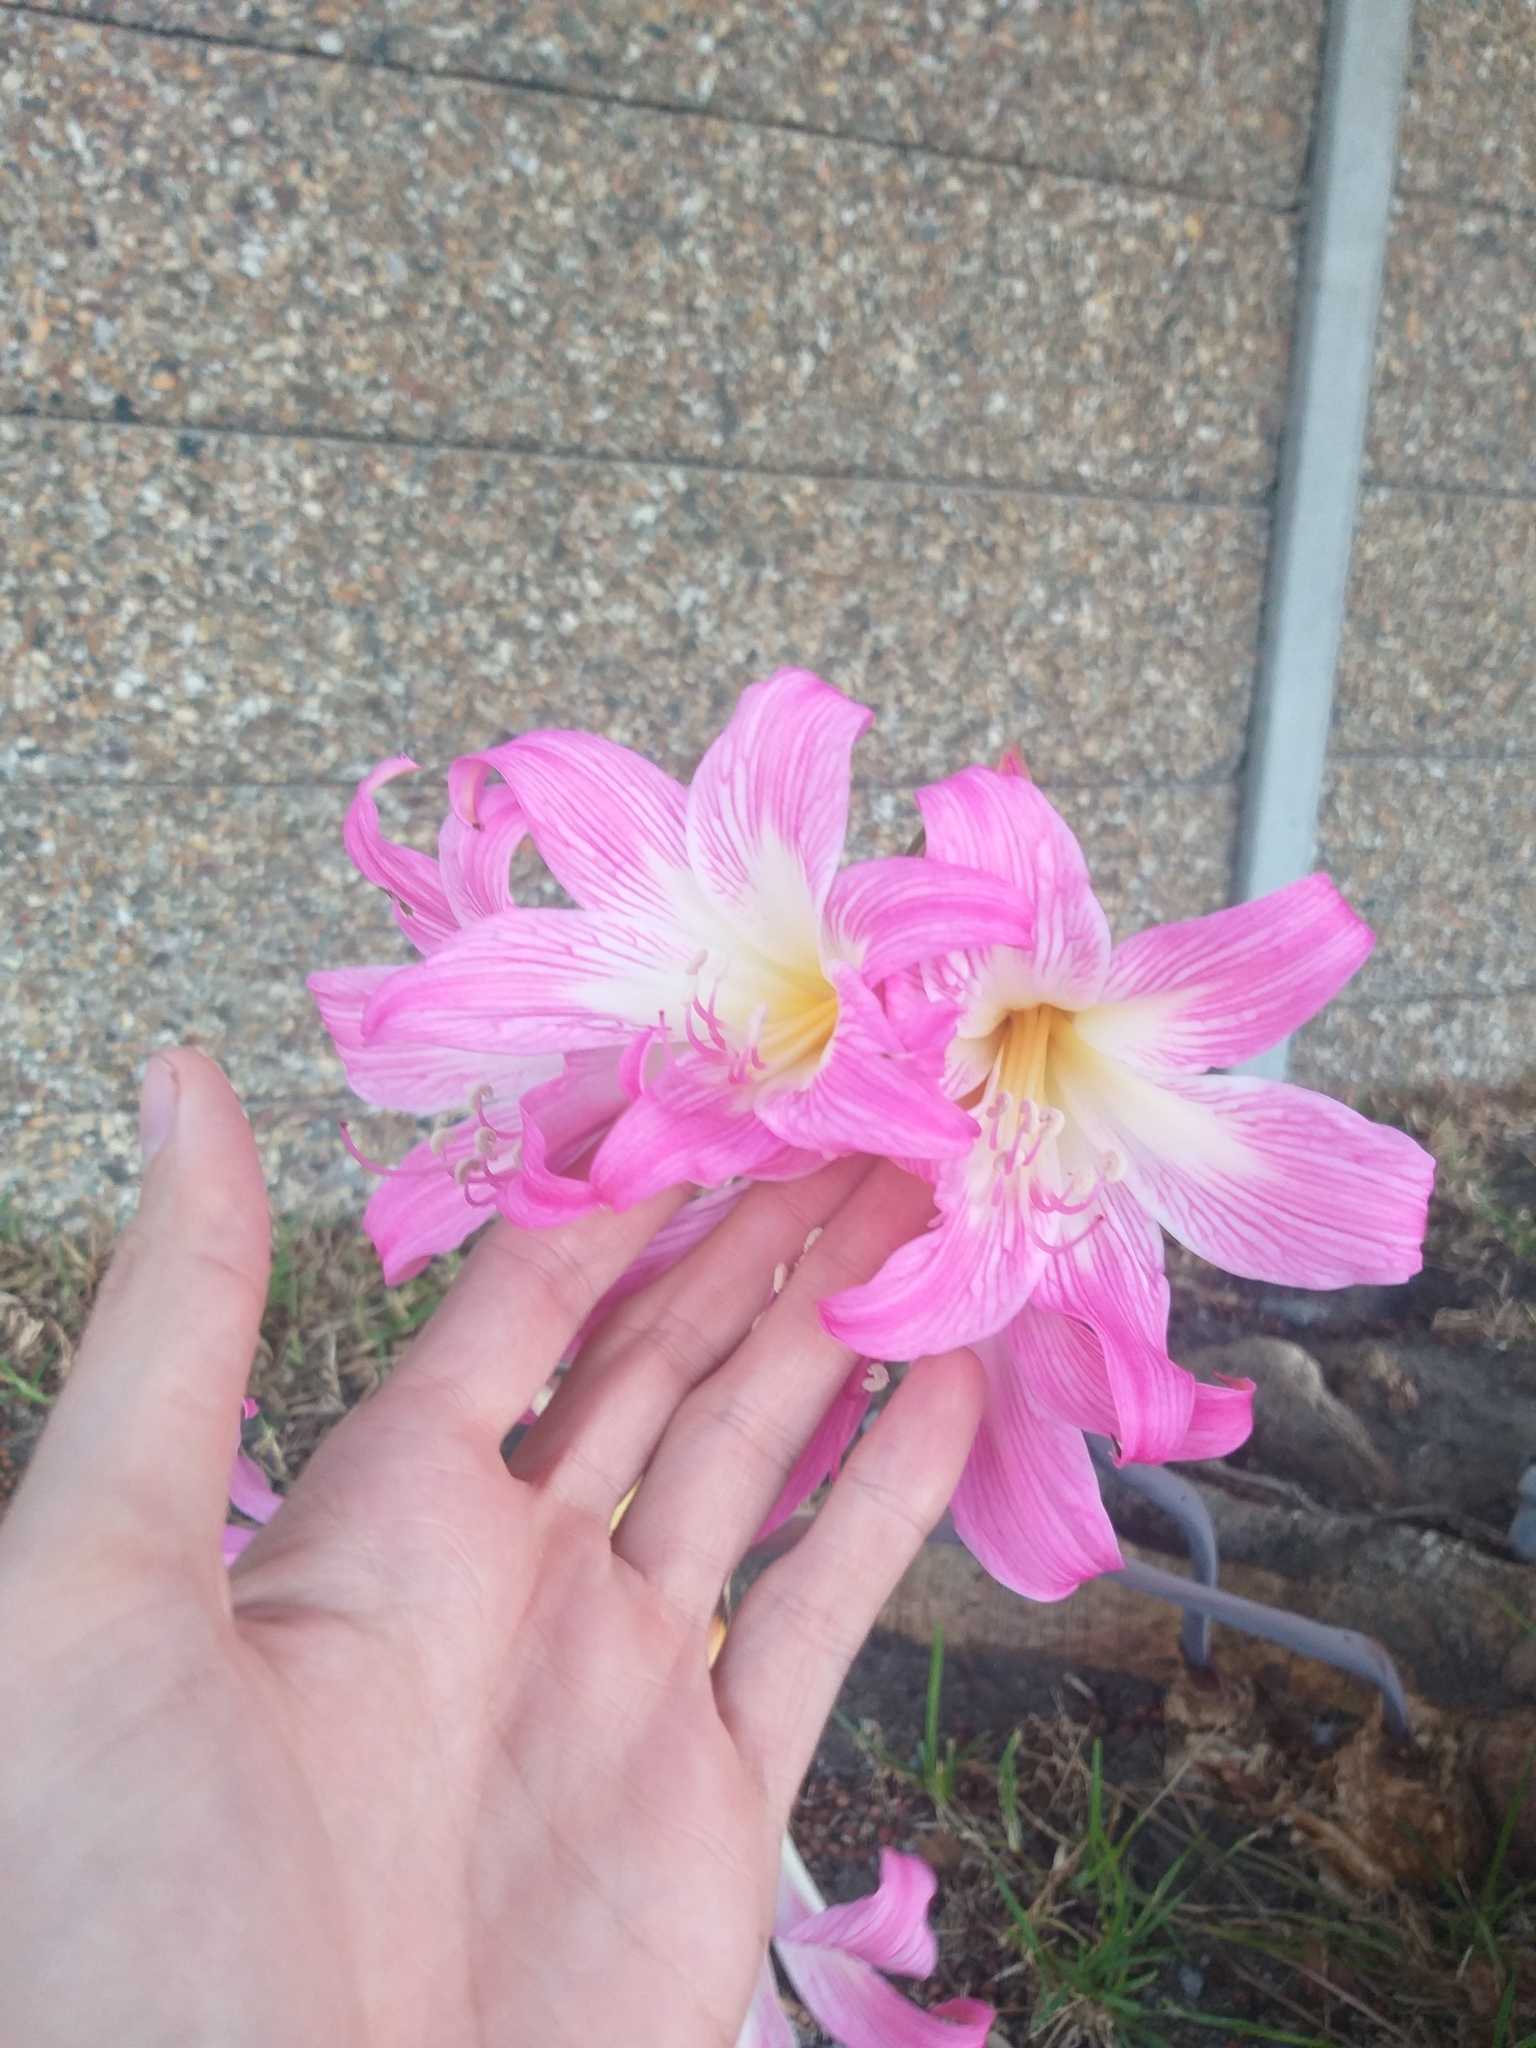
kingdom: Plantae
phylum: Tracheophyta
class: Liliopsida
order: Asparagales
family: Amaryllidaceae
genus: Amaryllis
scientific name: Amaryllis belladonna
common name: Jersey lily
